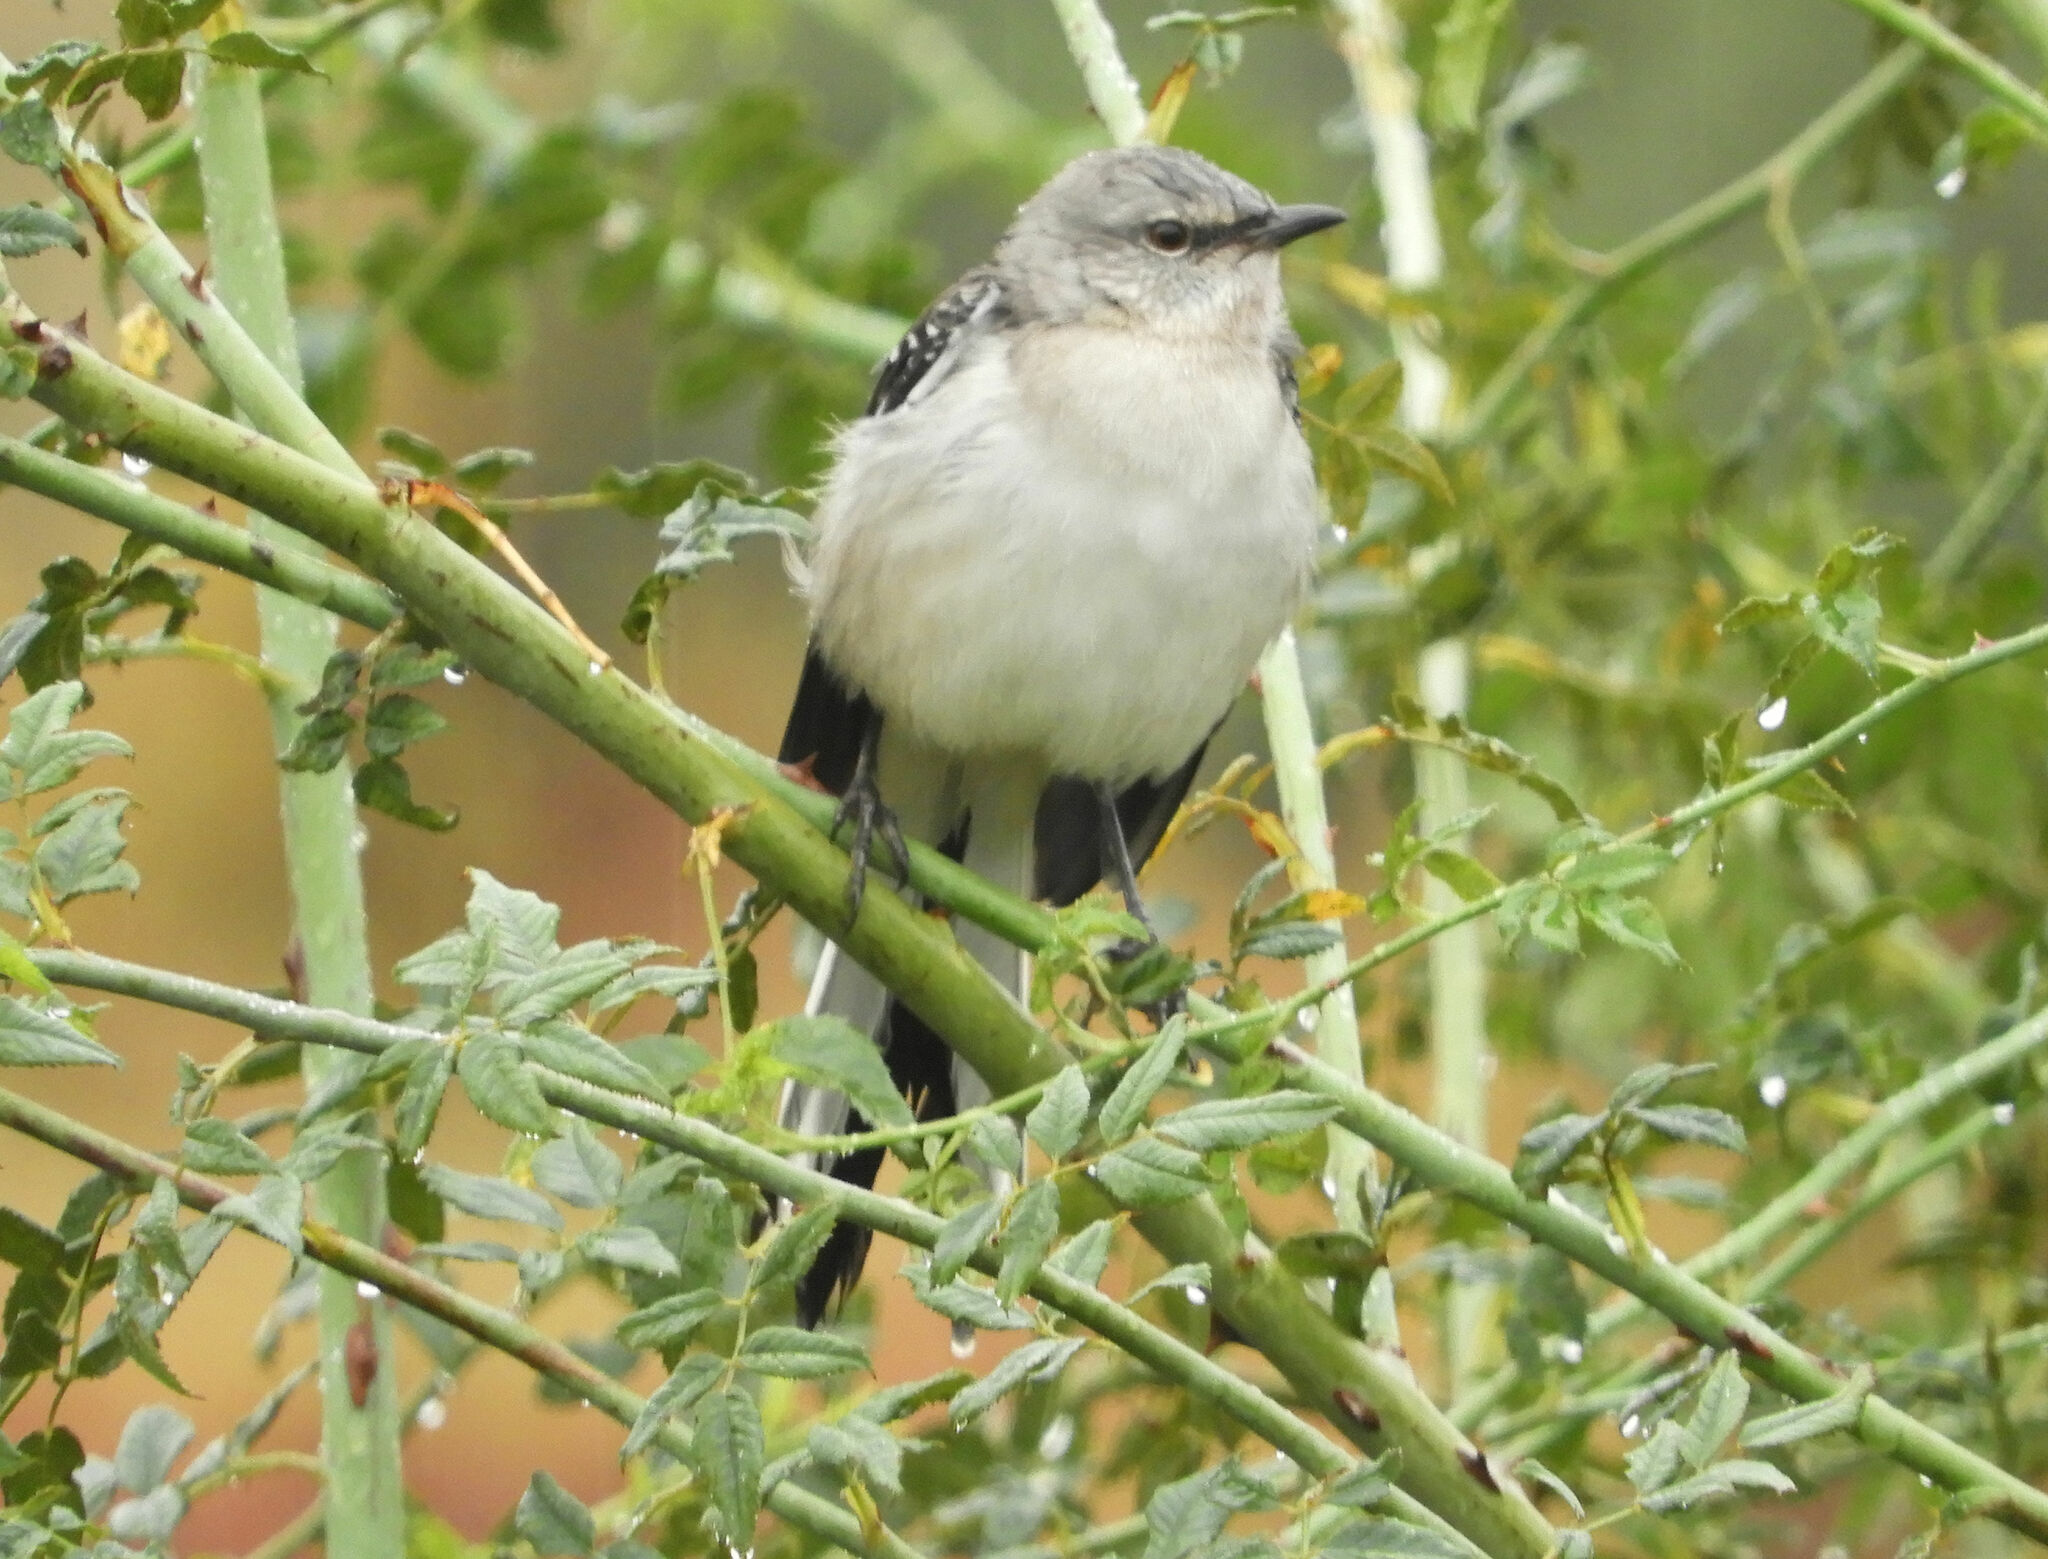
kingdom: Animalia
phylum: Chordata
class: Aves
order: Passeriformes
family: Mimidae
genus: Mimus
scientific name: Mimus polyglottos
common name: Northern mockingbird
